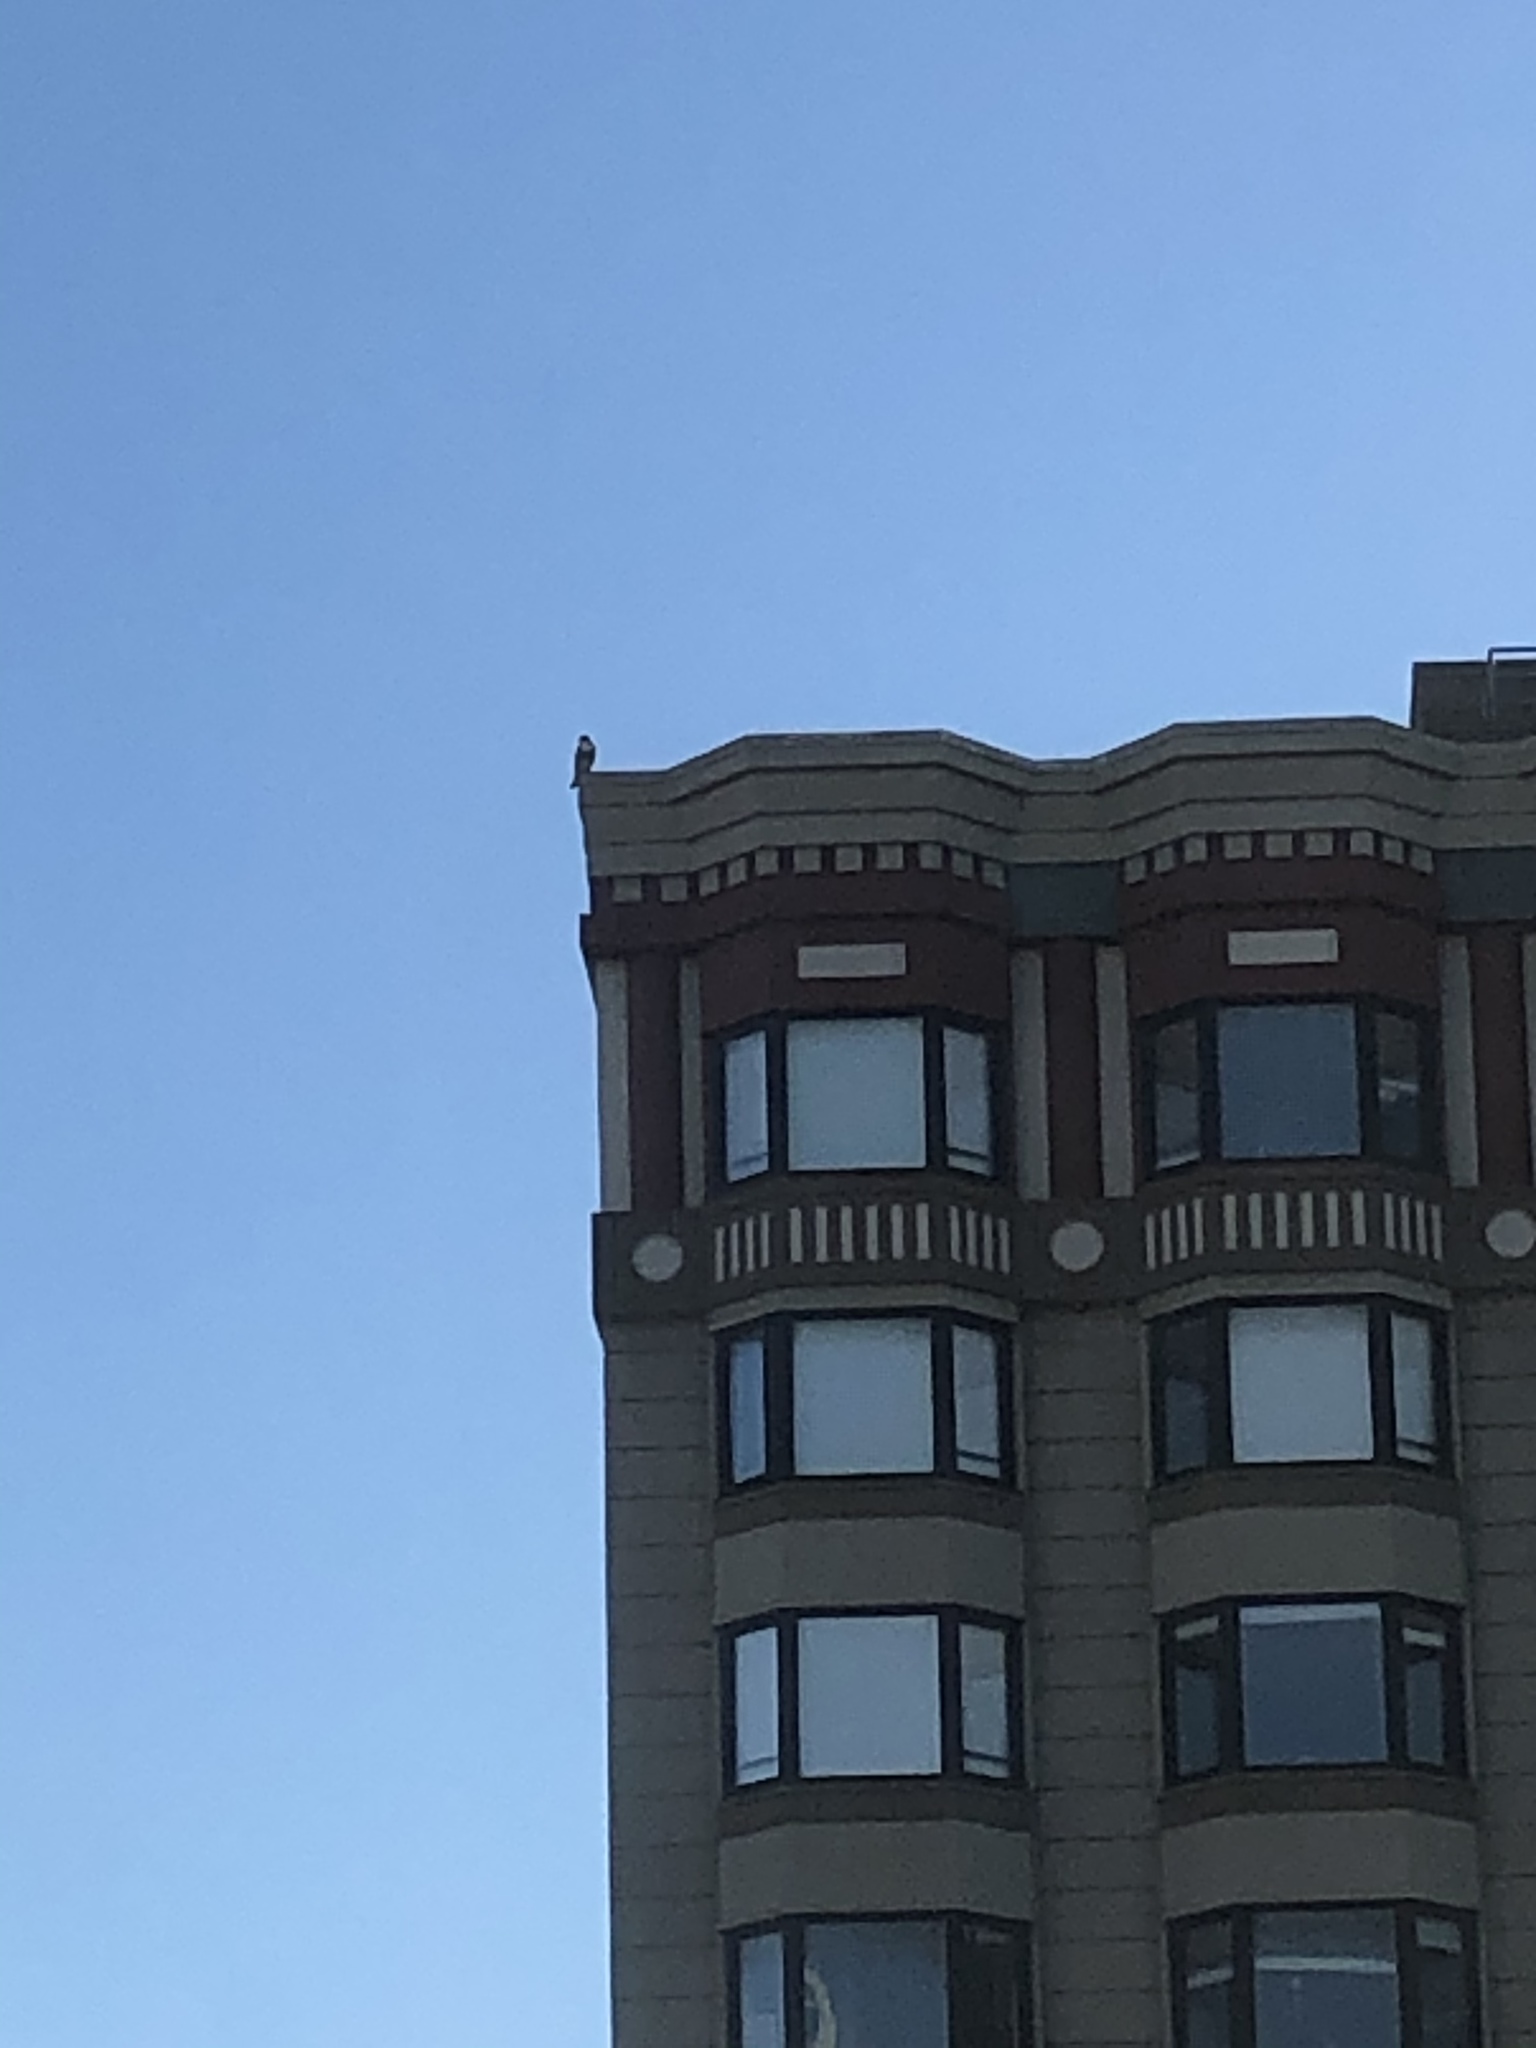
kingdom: Animalia
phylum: Chordata
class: Aves
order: Accipitriformes
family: Accipitridae
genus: Buteo
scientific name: Buteo jamaicensis
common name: Red-tailed hawk
